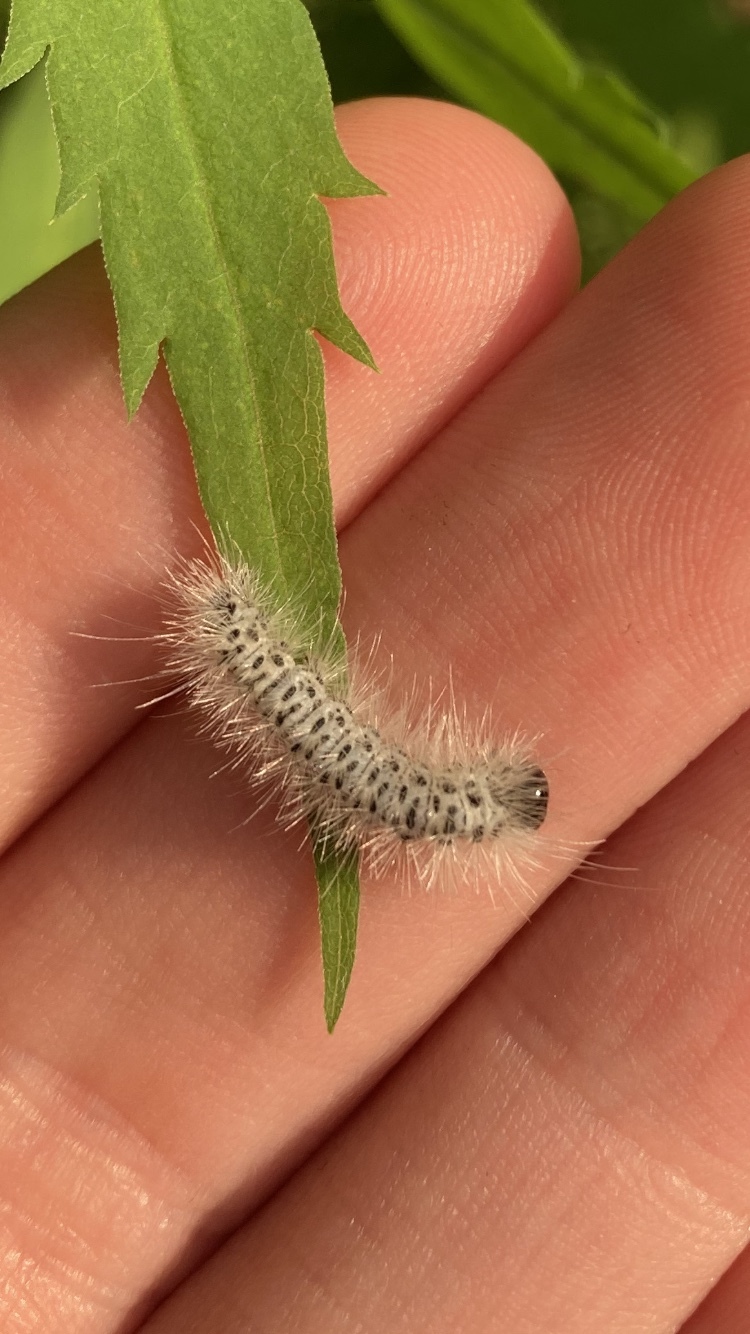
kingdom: Animalia
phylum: Arthropoda
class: Insecta
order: Lepidoptera
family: Erebidae
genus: Lophocampa
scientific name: Lophocampa caryae
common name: Hickory tussock moth
